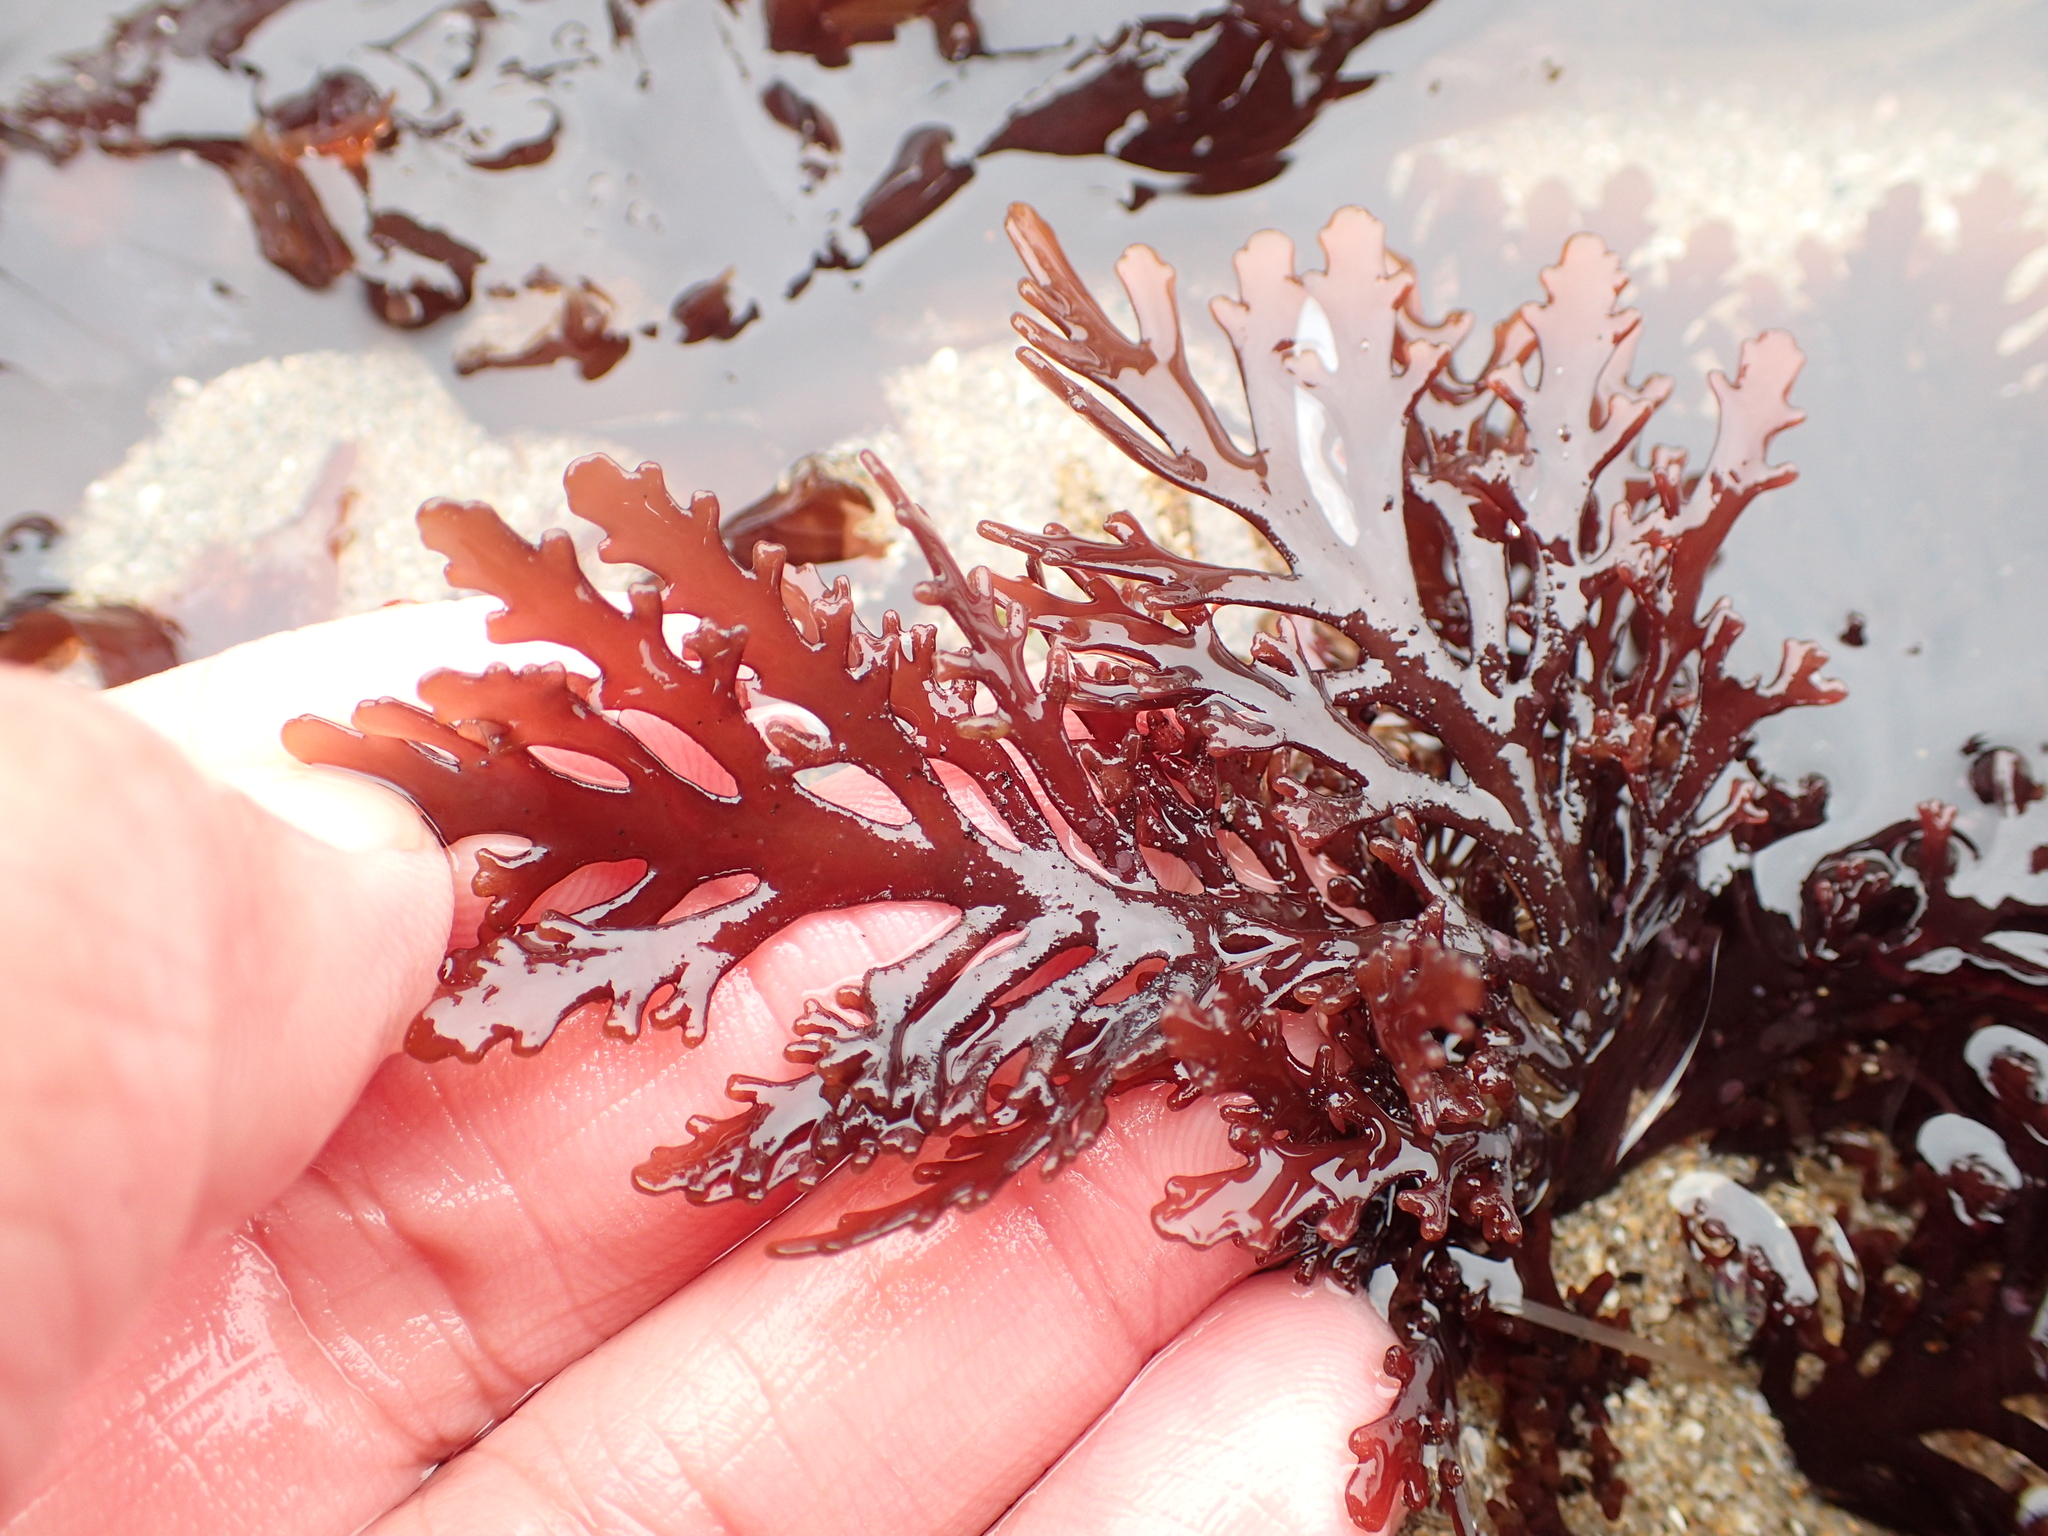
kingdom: Plantae
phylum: Rhodophyta
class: Florideophyceae
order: Ceramiales
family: Rhodomelaceae
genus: Osmundea
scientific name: Osmundea spectabilis
